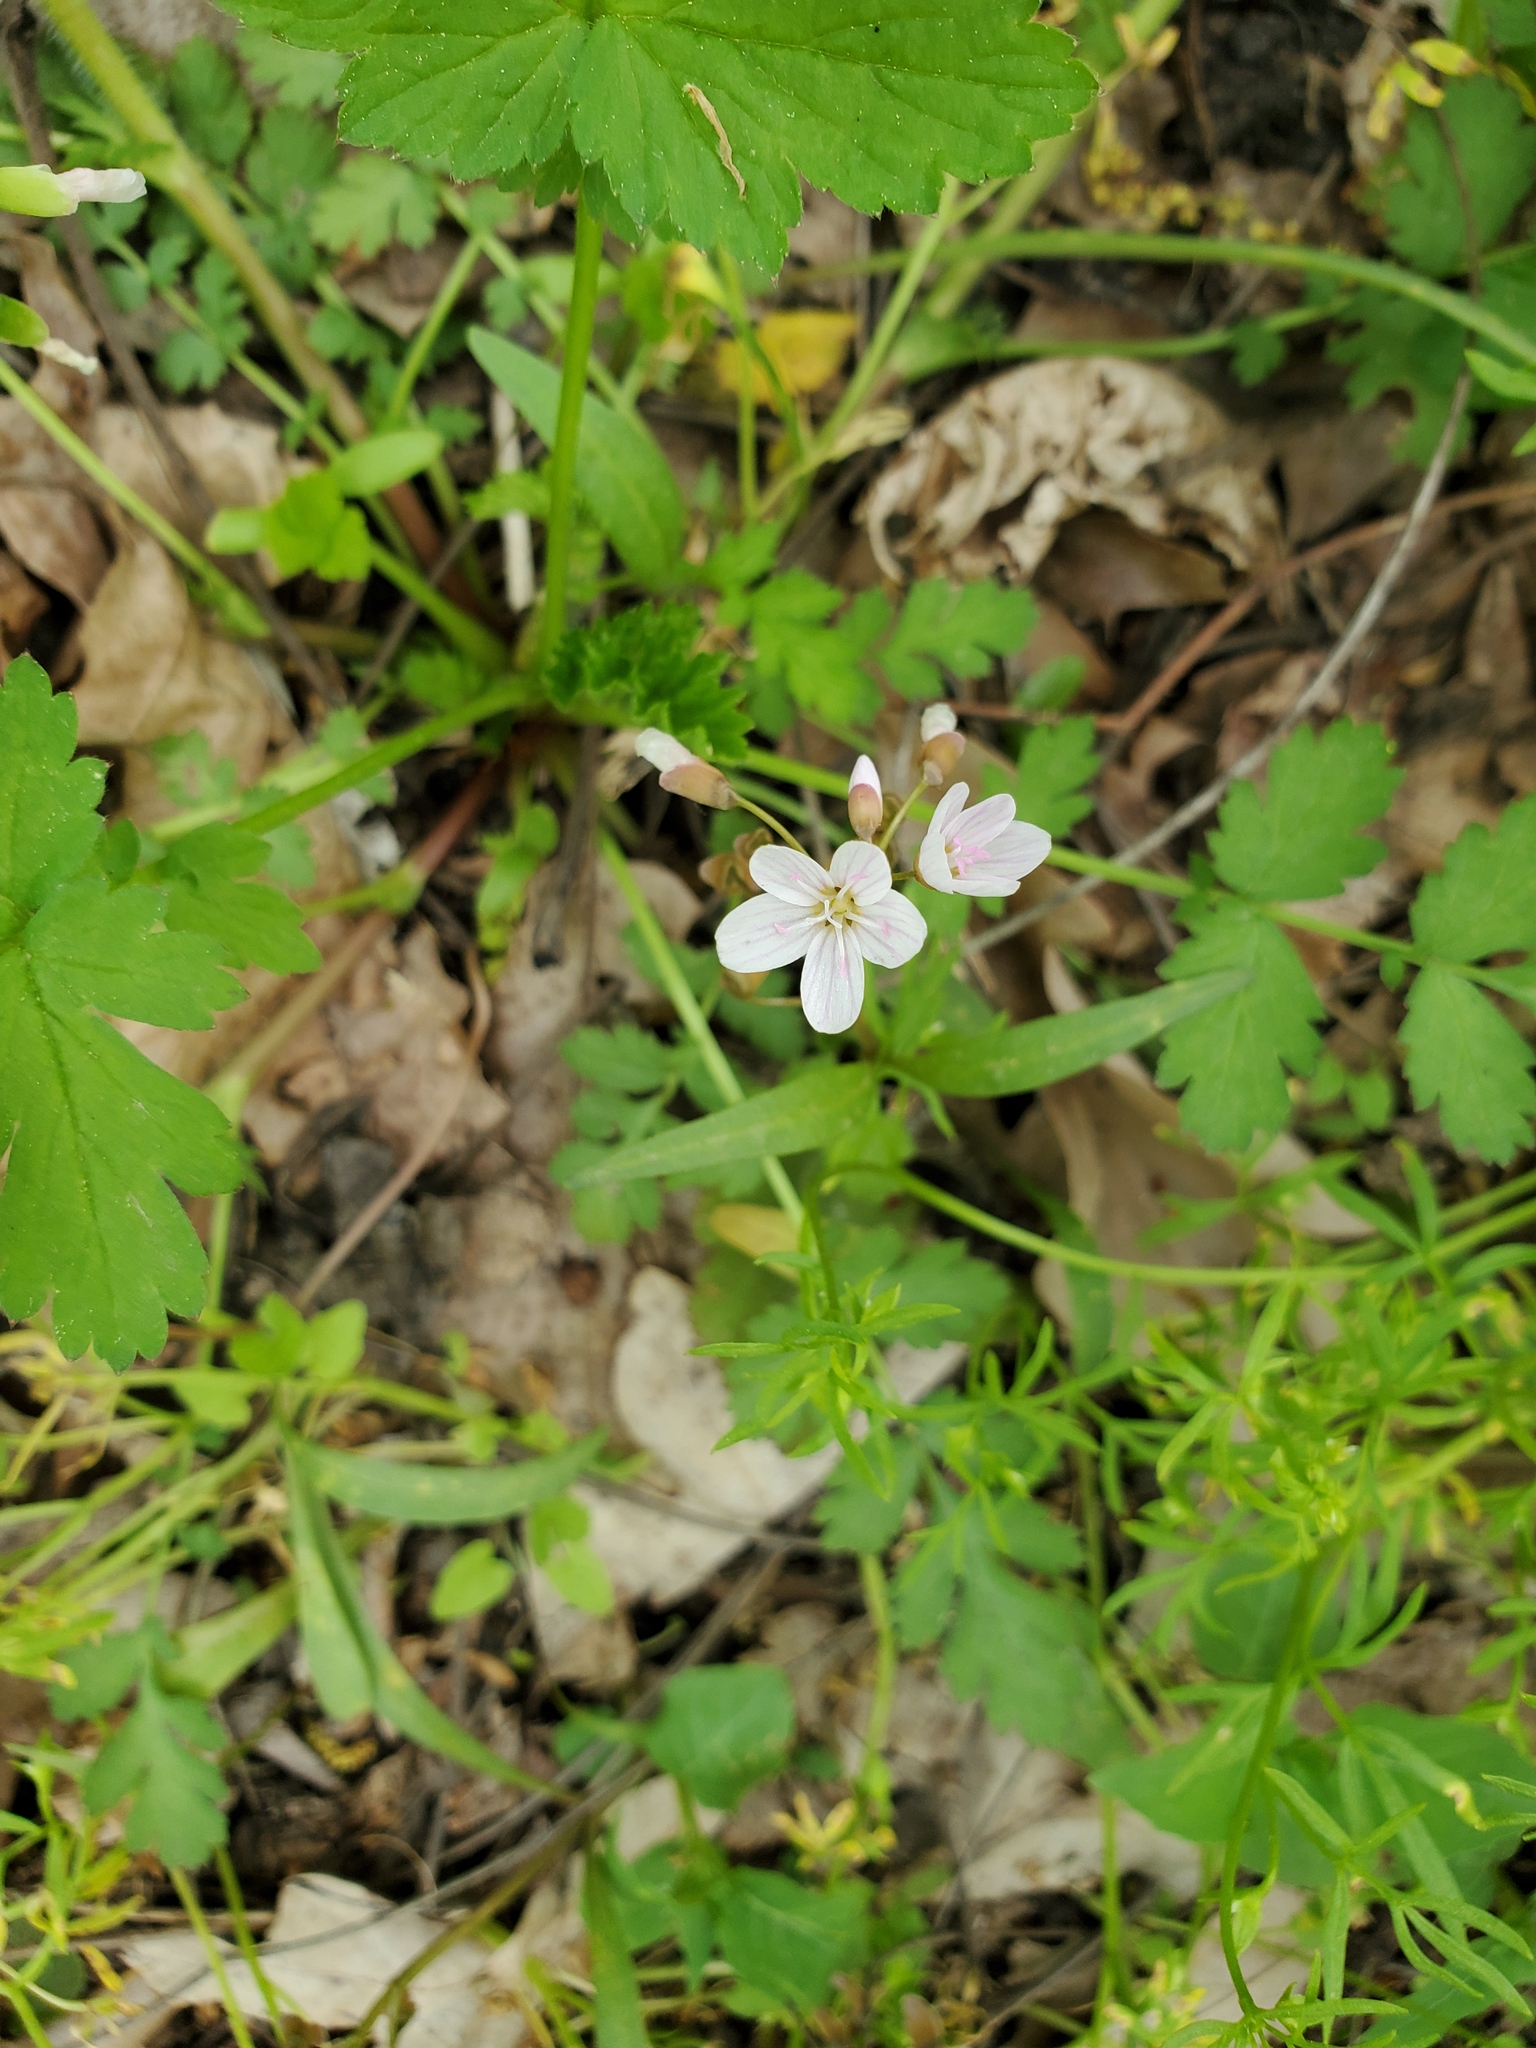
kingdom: Plantae
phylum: Tracheophyta
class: Magnoliopsida
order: Caryophyllales
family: Montiaceae
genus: Claytonia
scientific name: Claytonia virginica
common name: Virginia springbeauty
